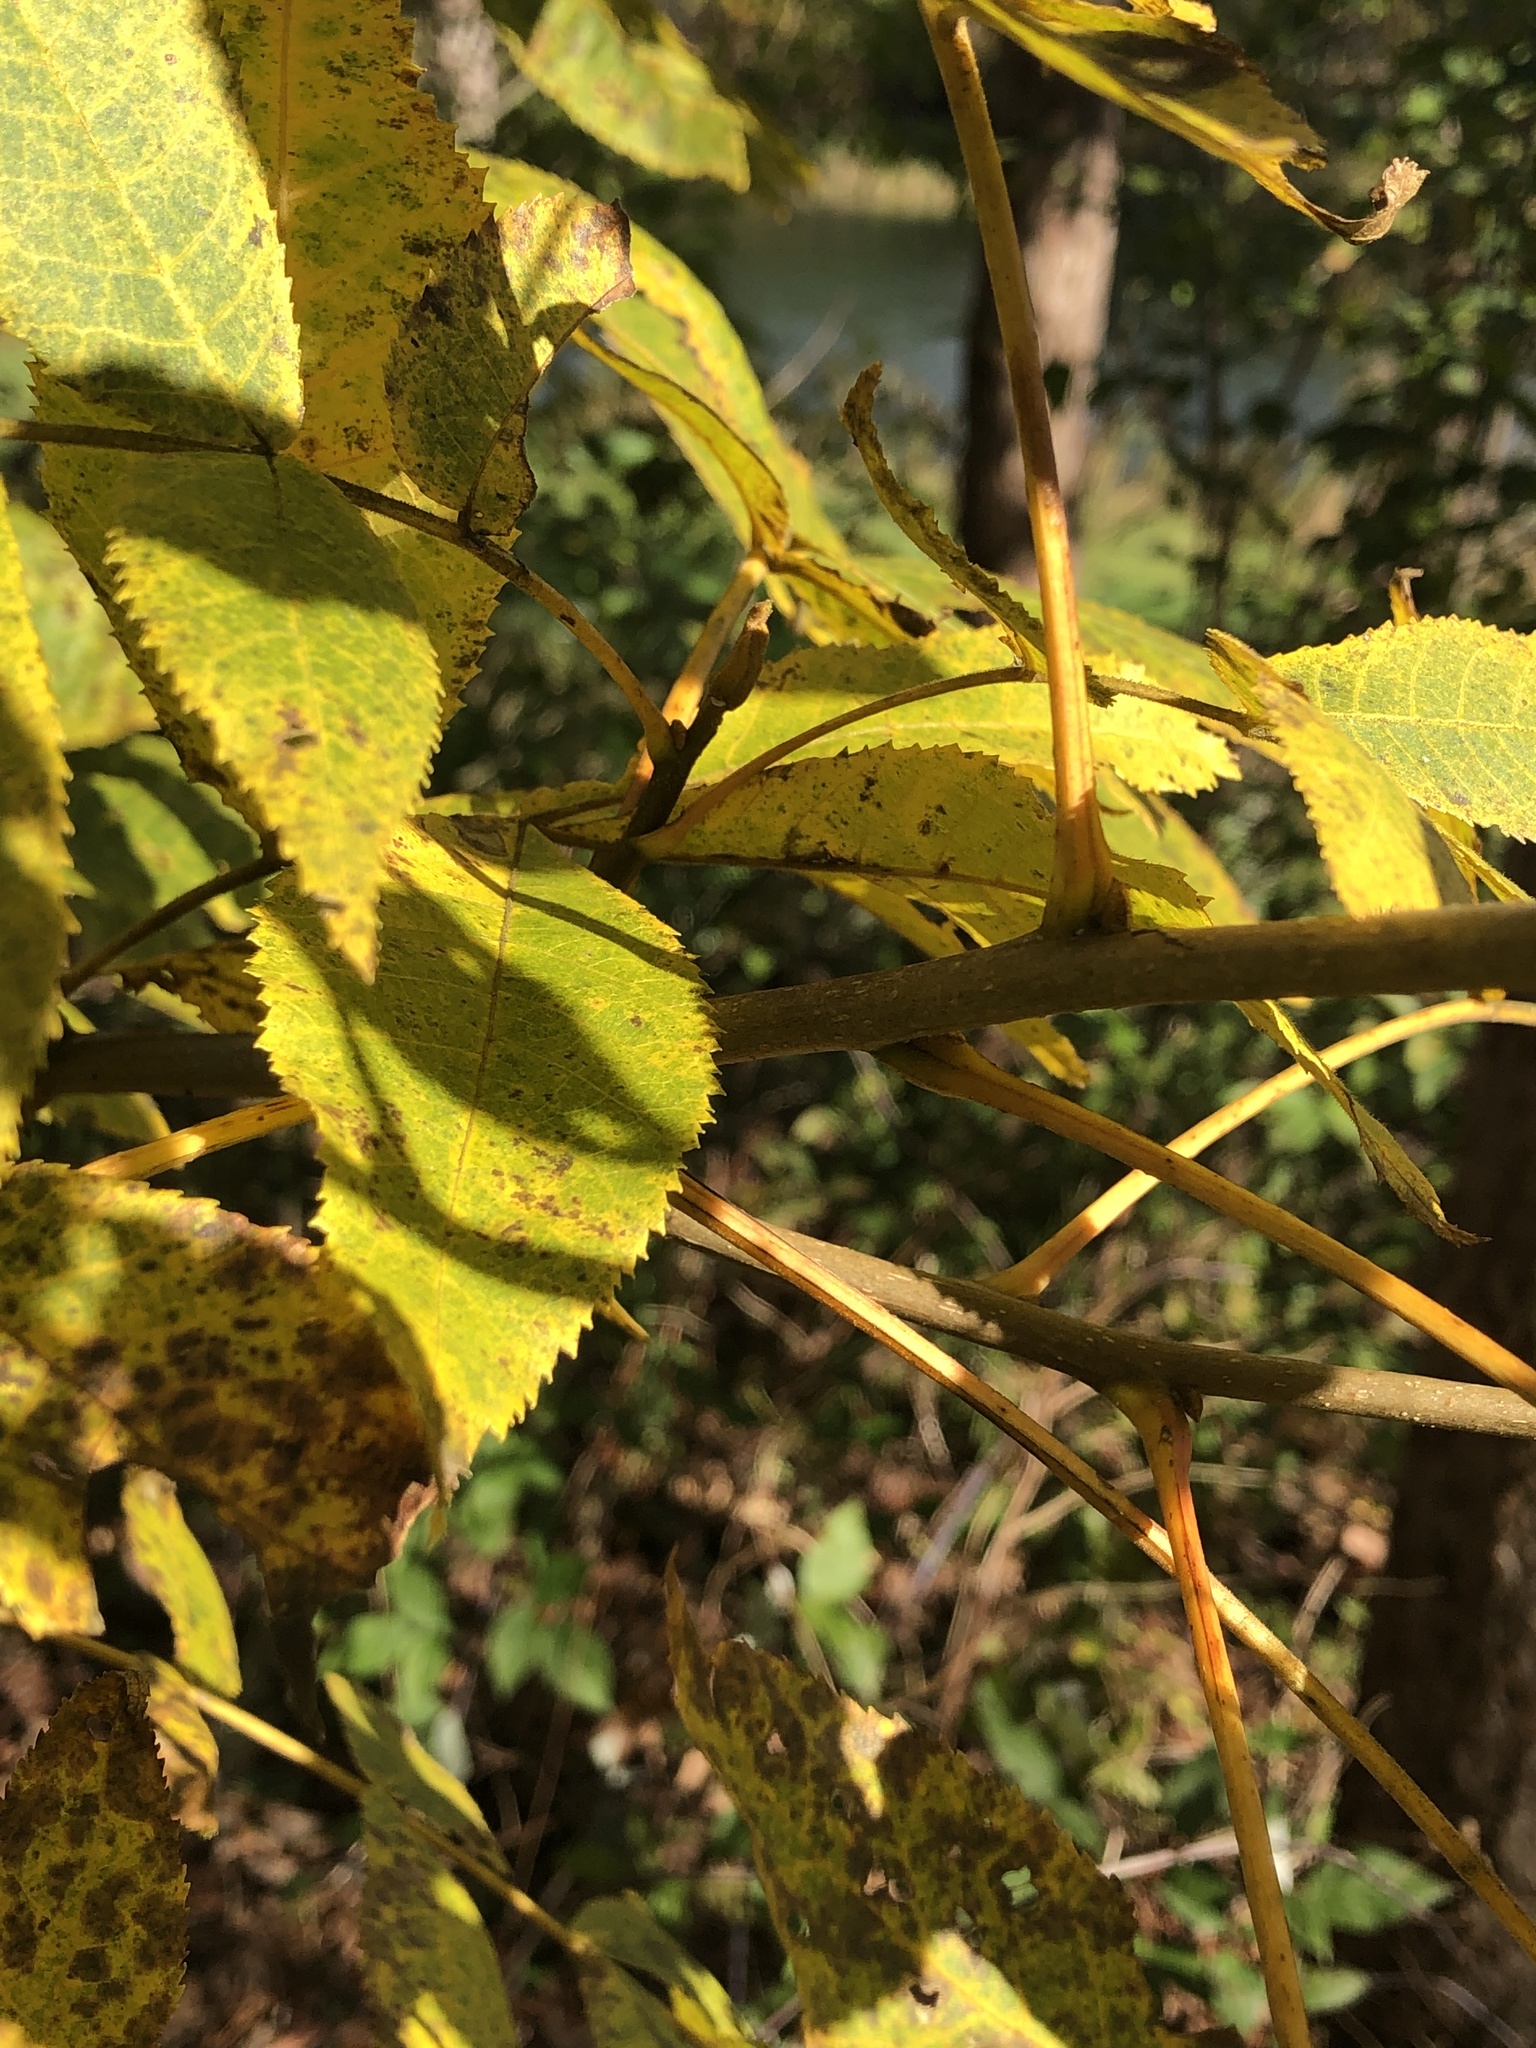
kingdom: Plantae
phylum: Tracheophyta
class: Magnoliopsida
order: Fagales
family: Juglandaceae
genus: Carya
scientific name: Carya cordiformis
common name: Bitternut hickory
